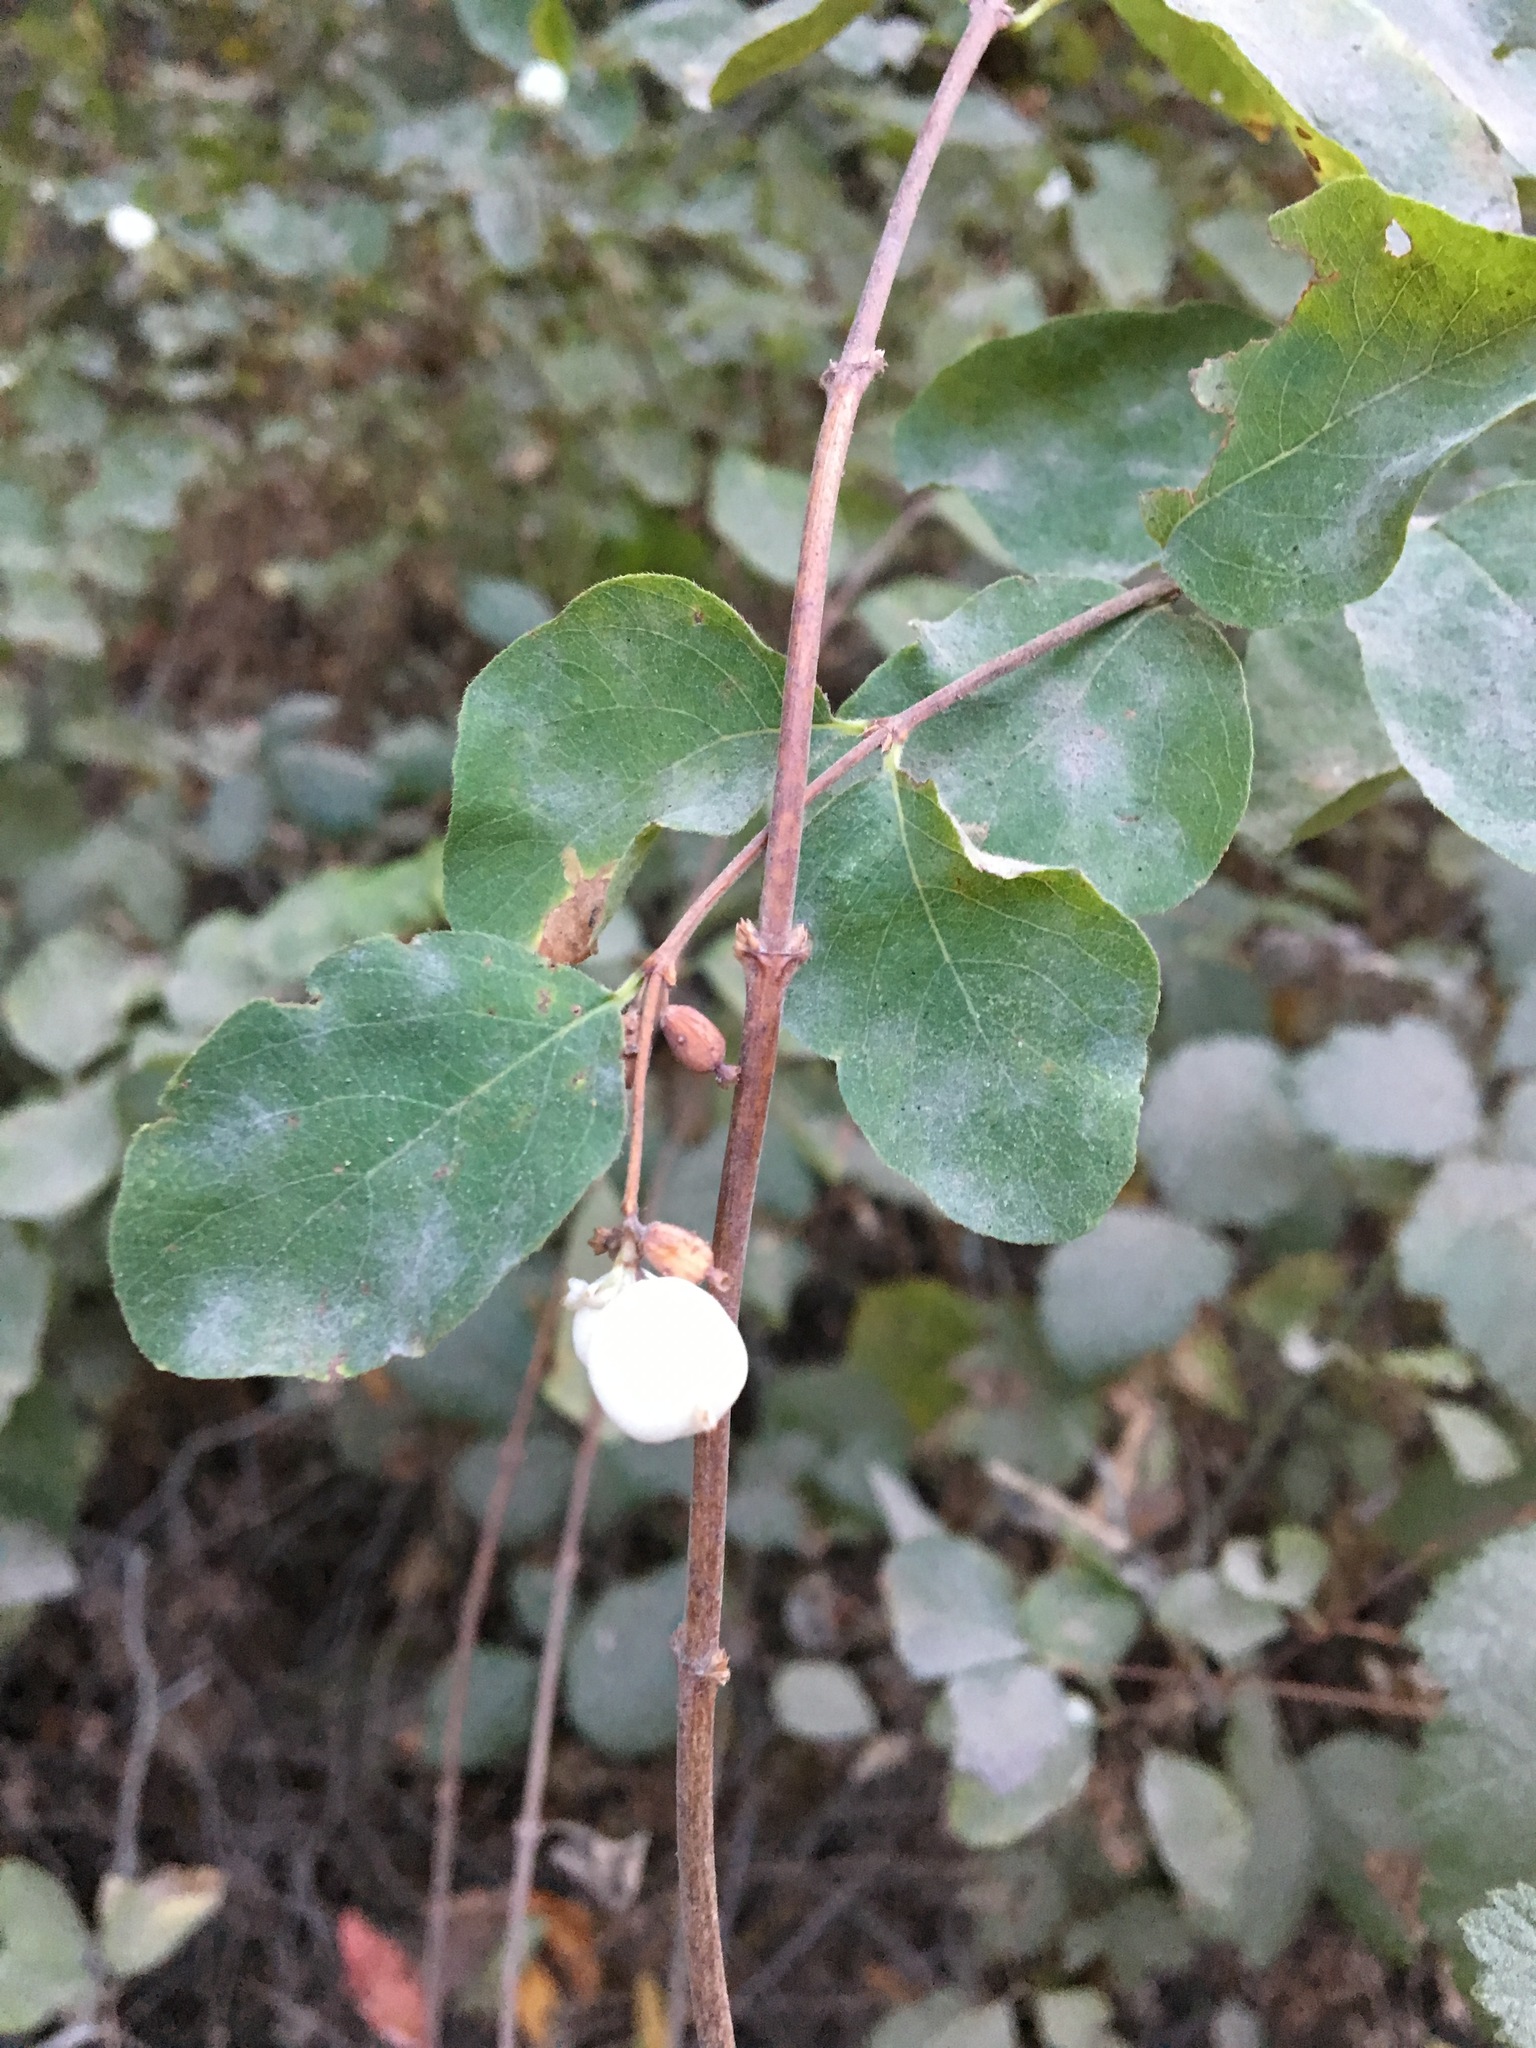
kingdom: Plantae
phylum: Tracheophyta
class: Magnoliopsida
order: Dipsacales
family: Caprifoliaceae
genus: Symphoricarpos
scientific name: Symphoricarpos albus
